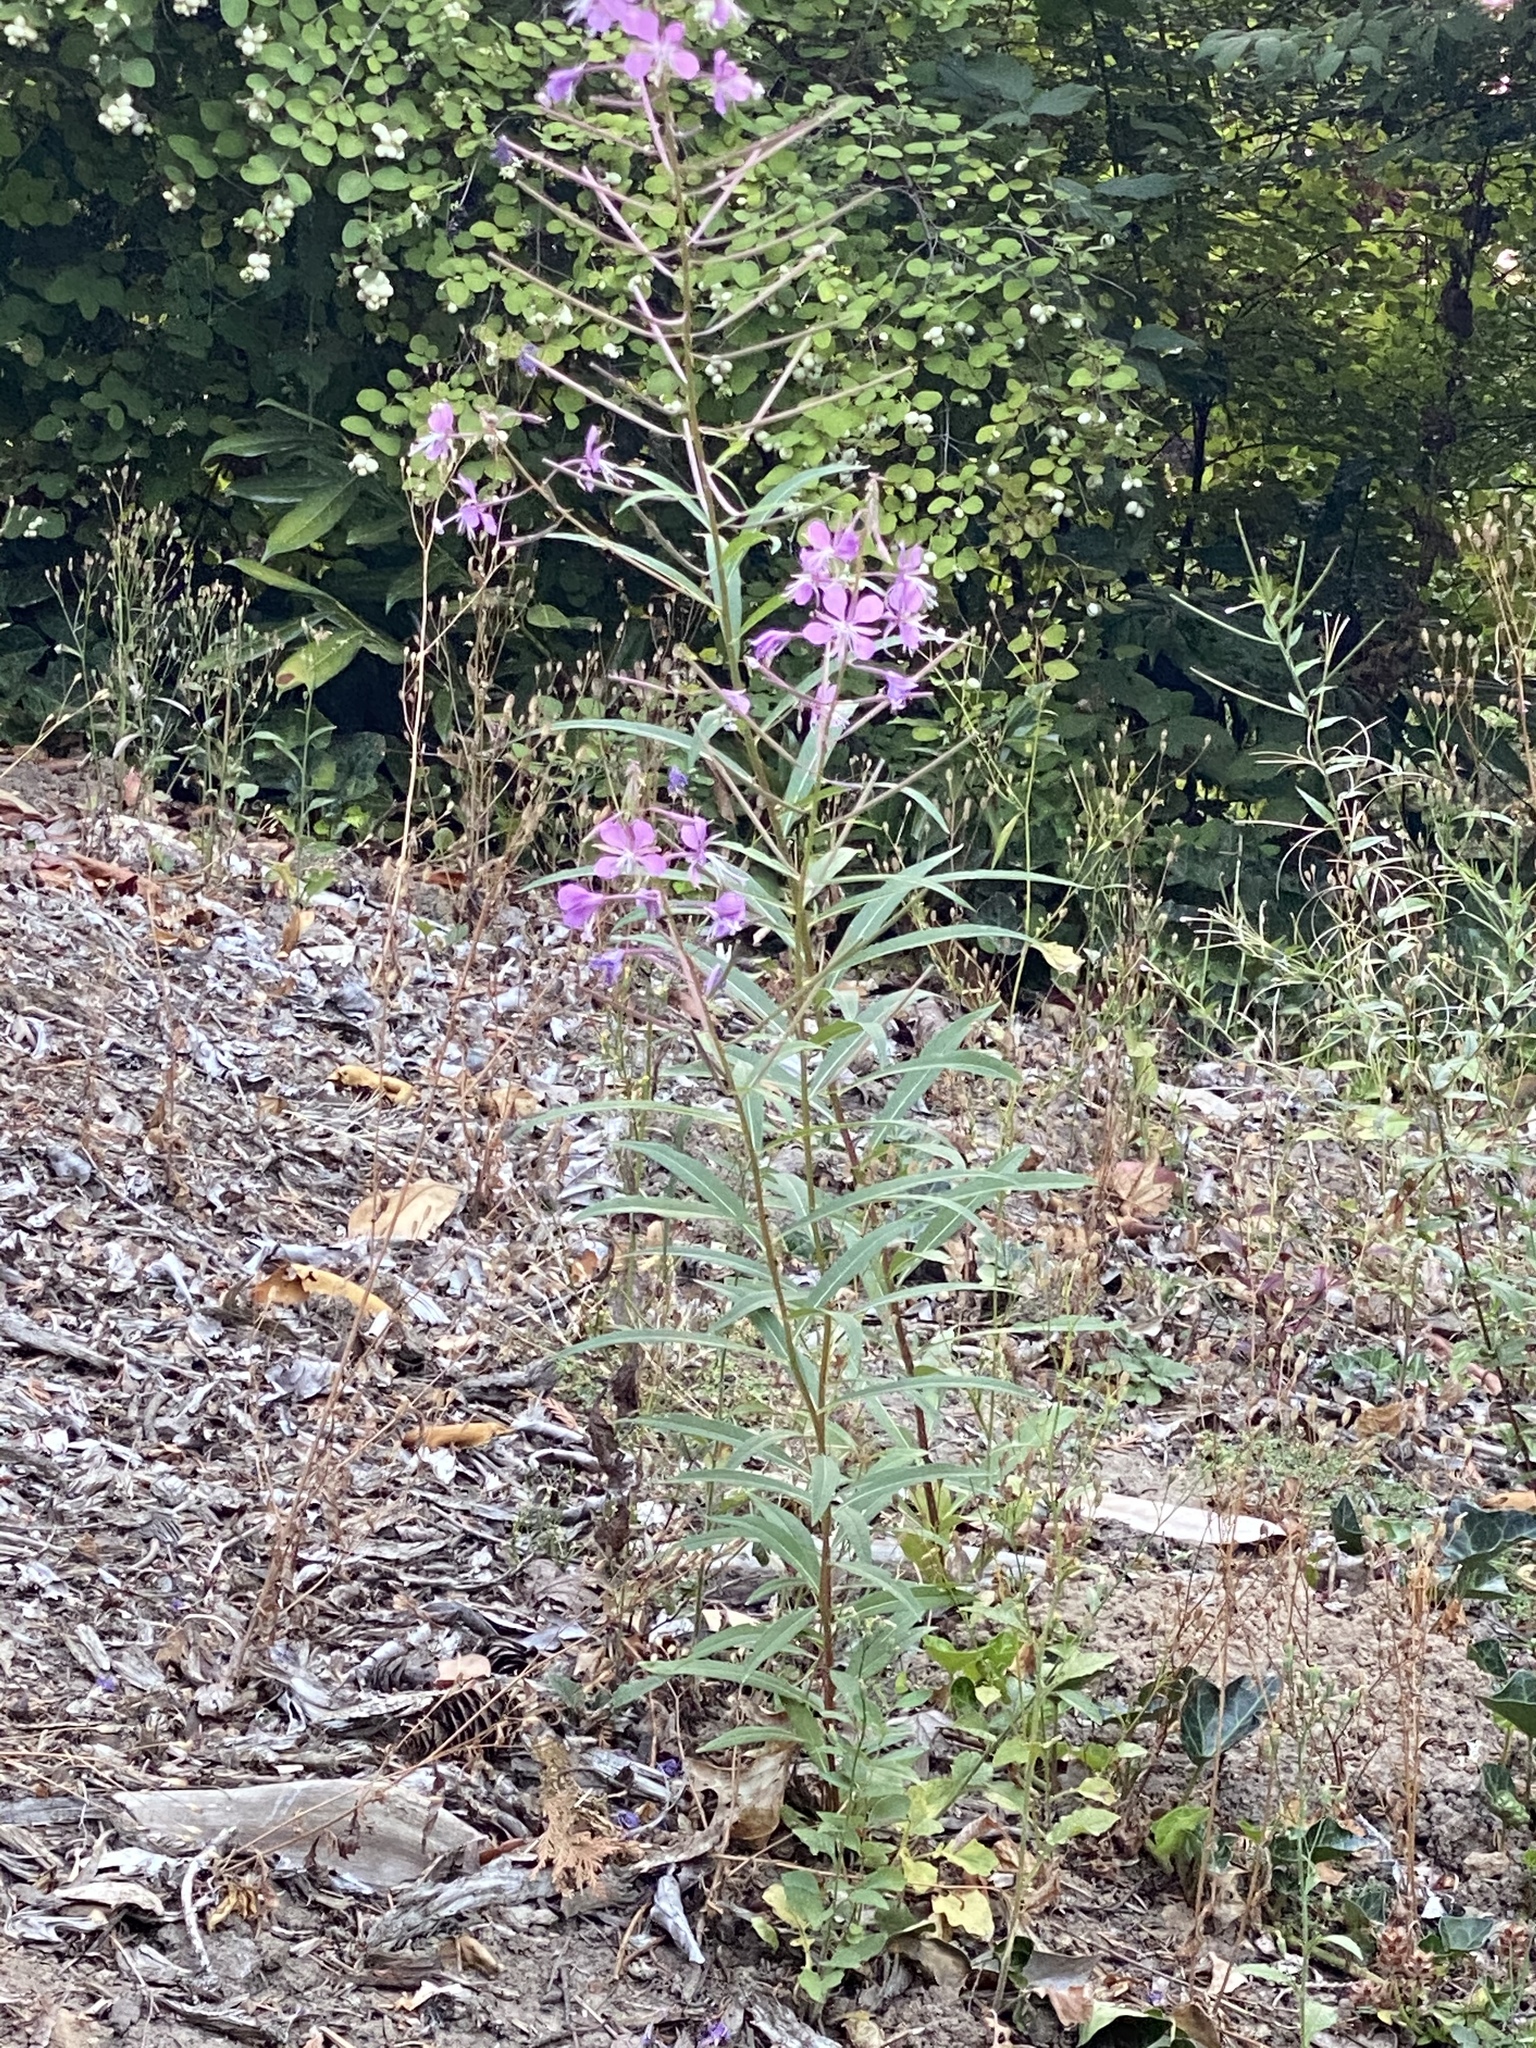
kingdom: Plantae
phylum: Tracheophyta
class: Magnoliopsida
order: Myrtales
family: Onagraceae
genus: Chamaenerion
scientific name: Chamaenerion angustifolium
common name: Fireweed
